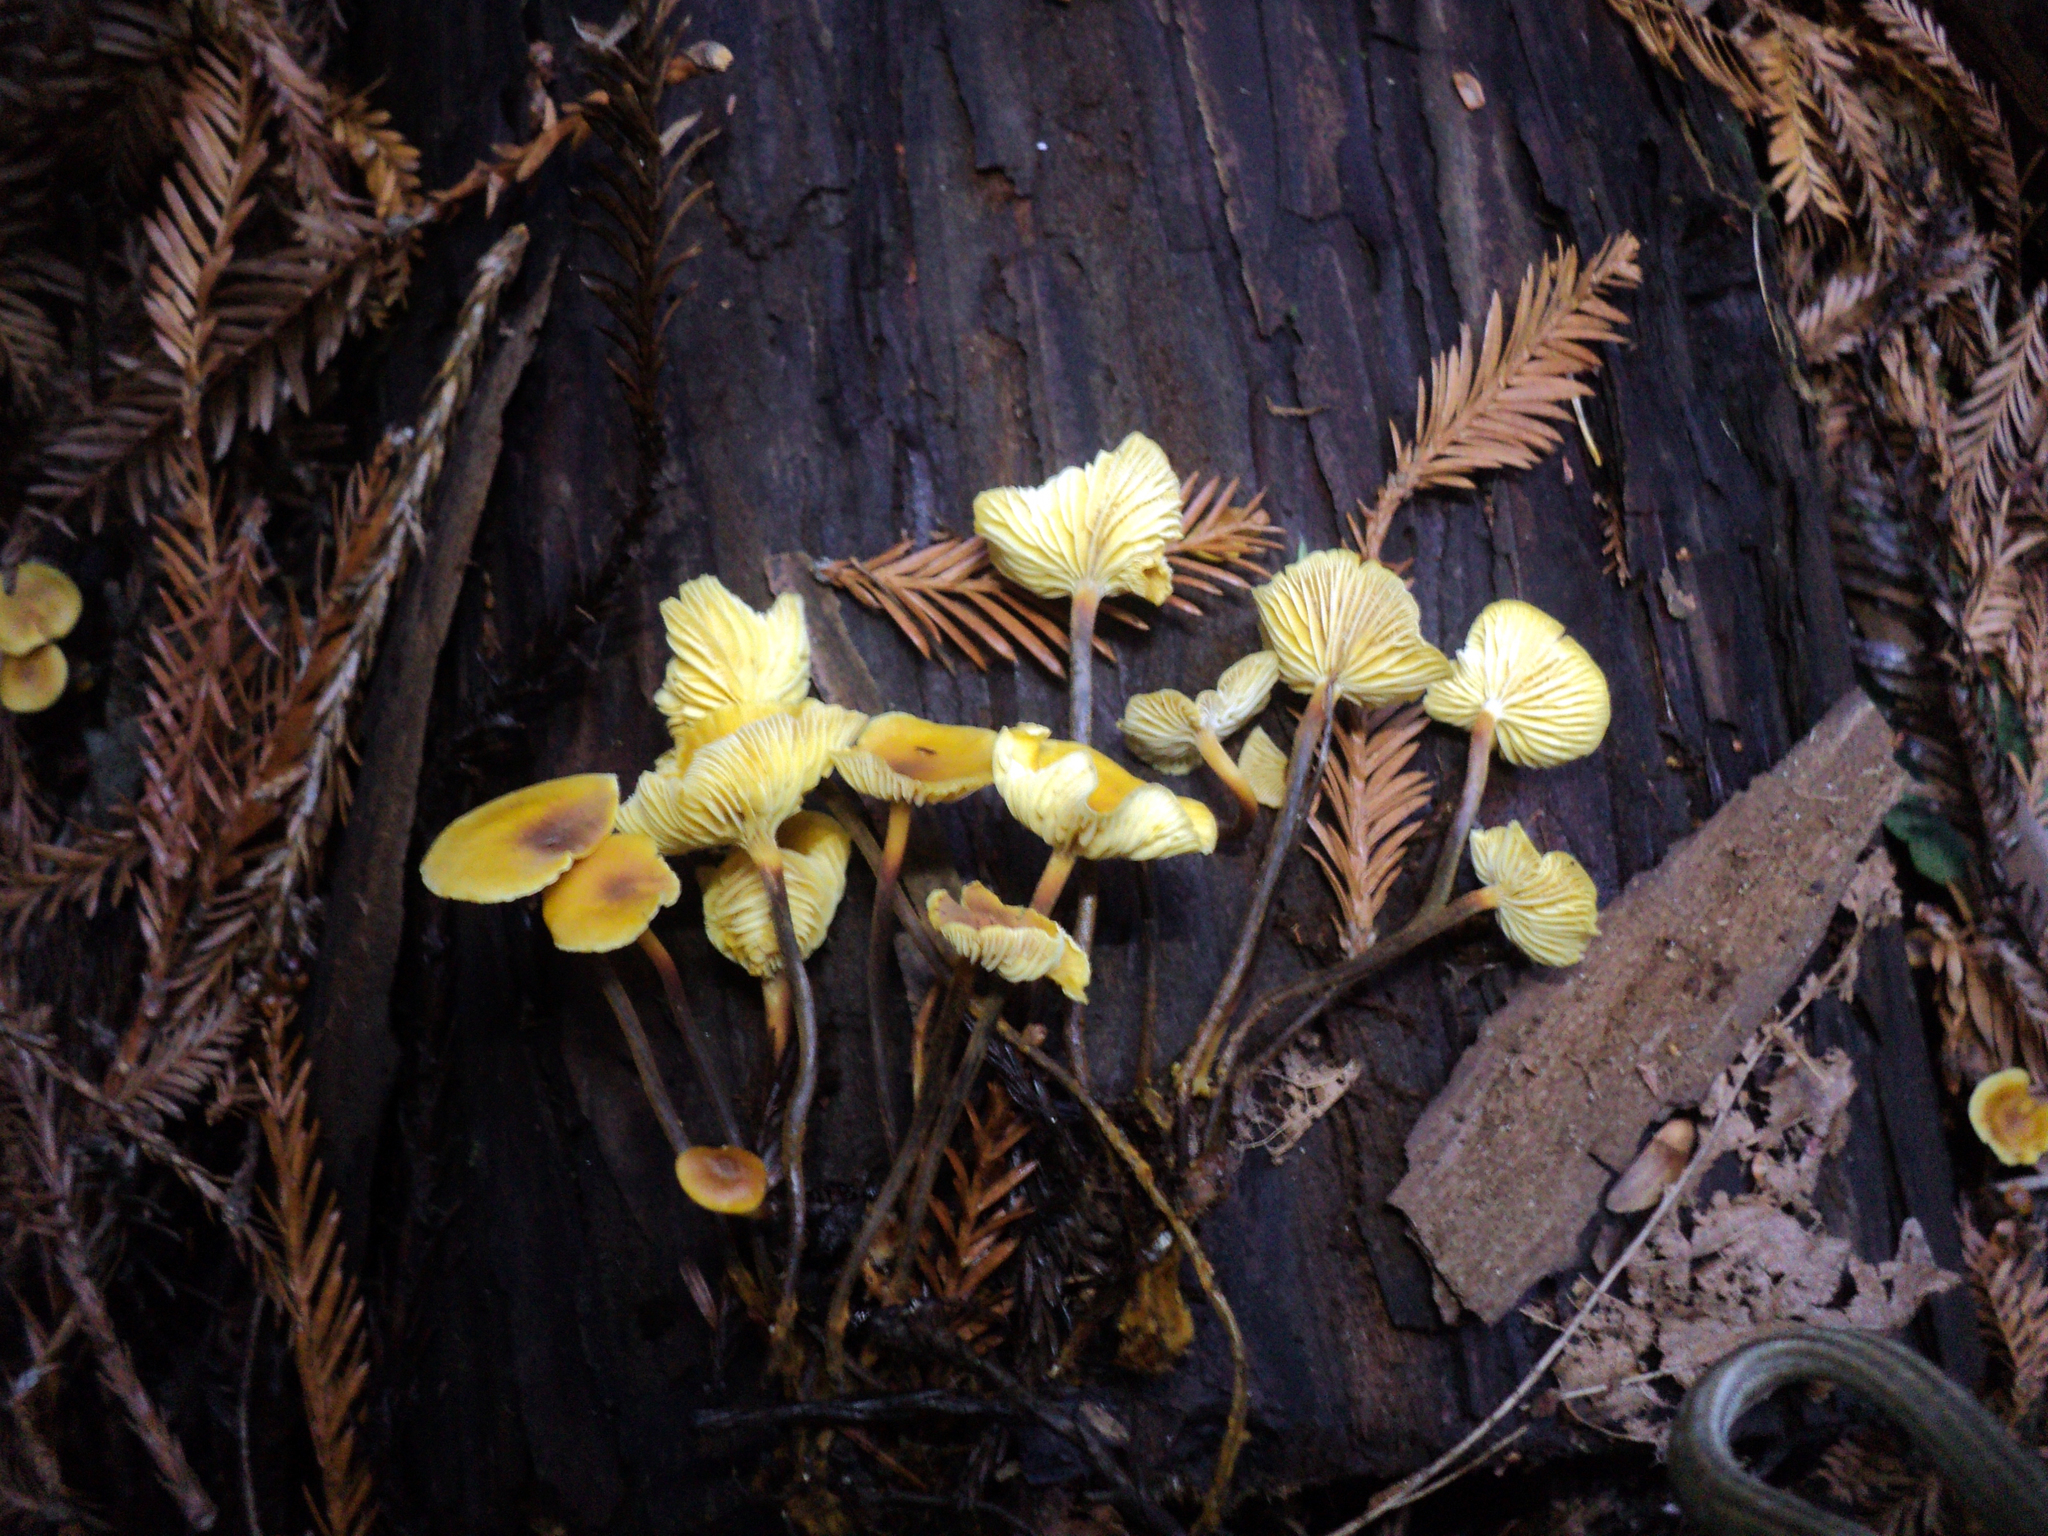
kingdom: Fungi
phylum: Basidiomycota
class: Agaricomycetes
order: Agaricales
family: Mycenaceae
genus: Xeromphalina
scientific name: Xeromphalina cauticinalis
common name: Pinelitter gingertail
